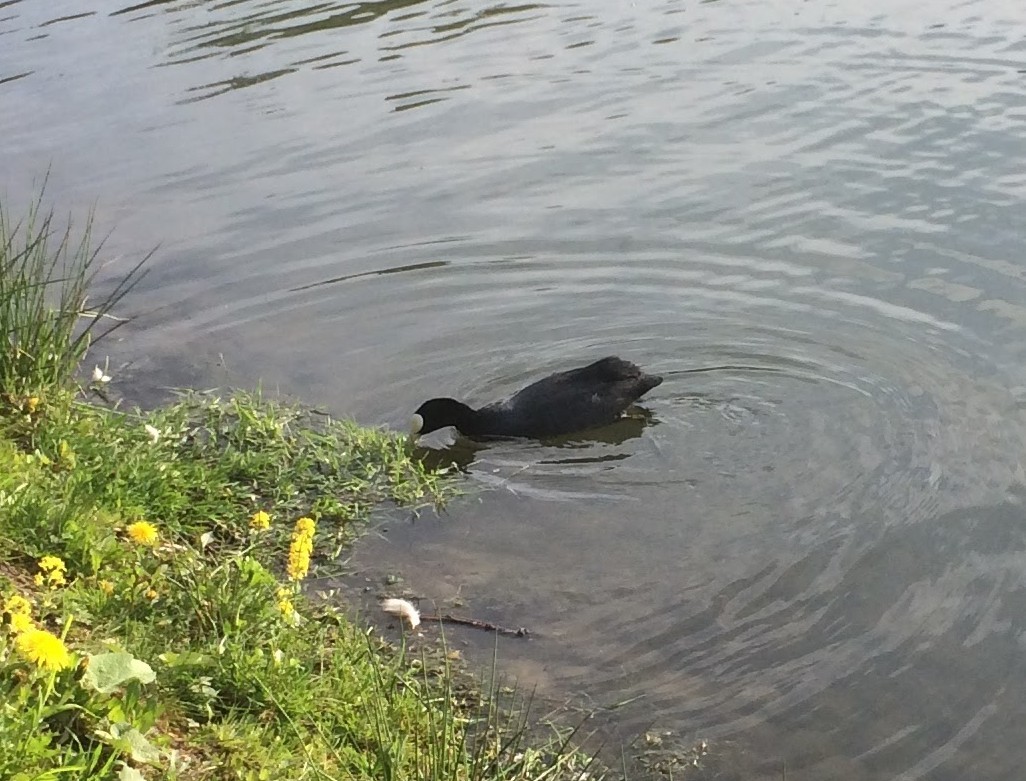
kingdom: Animalia
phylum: Chordata
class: Aves
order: Gruiformes
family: Rallidae
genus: Fulica
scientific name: Fulica atra
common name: Eurasian coot
